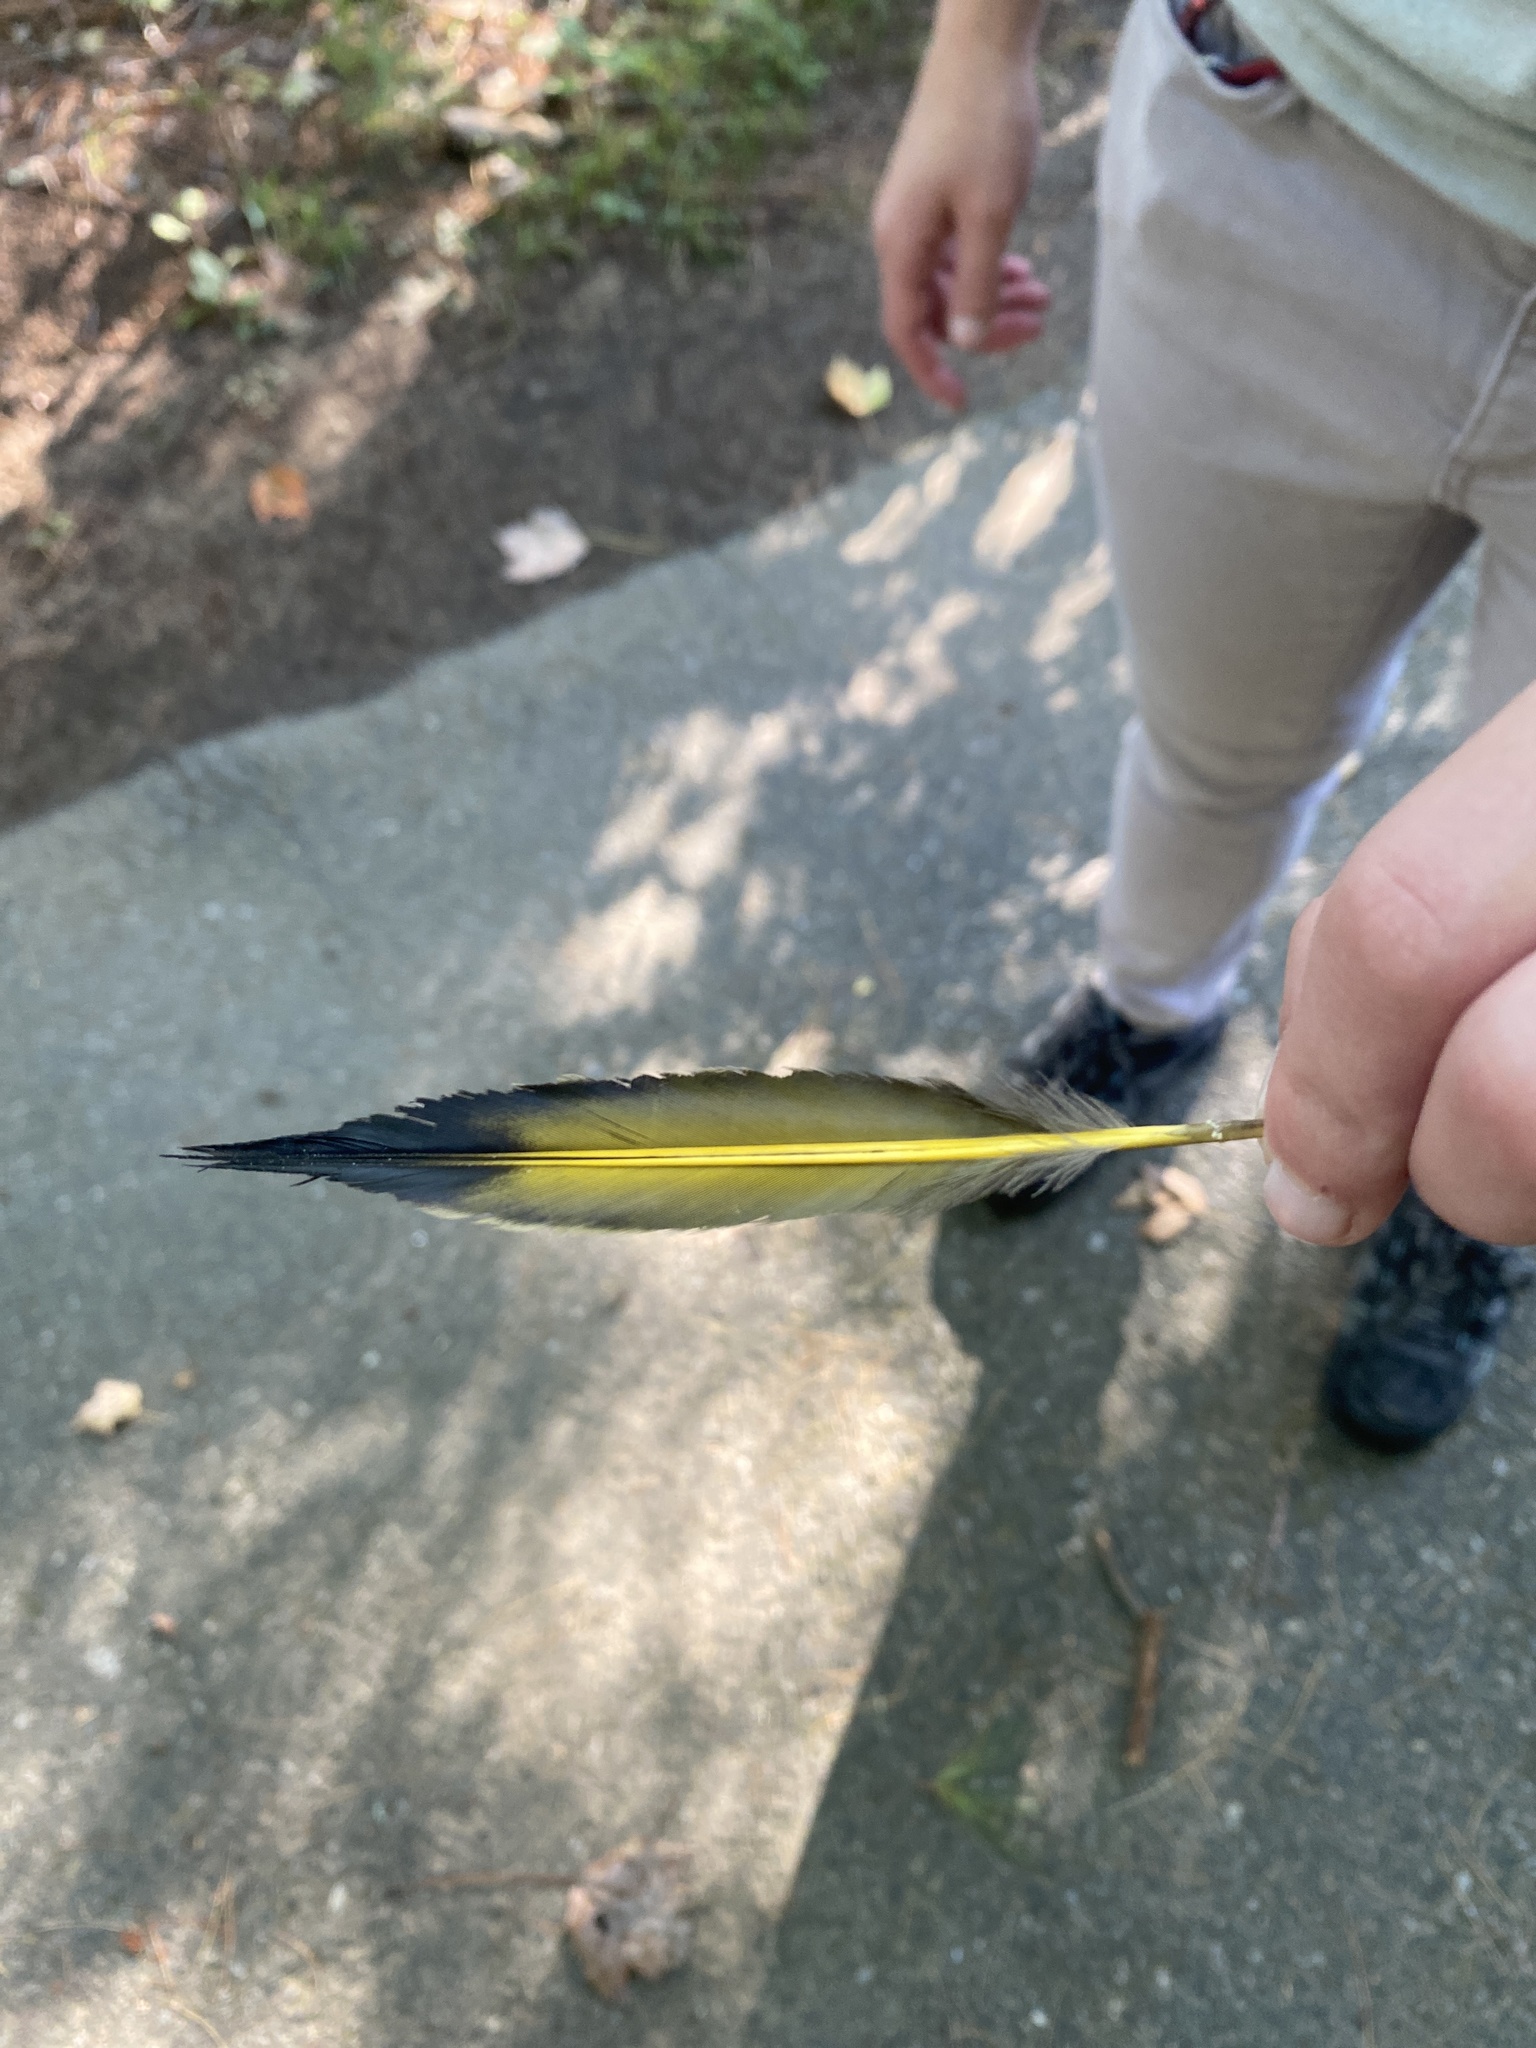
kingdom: Animalia
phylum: Chordata
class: Aves
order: Piciformes
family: Picidae
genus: Colaptes
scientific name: Colaptes auratus
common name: Northern flicker
